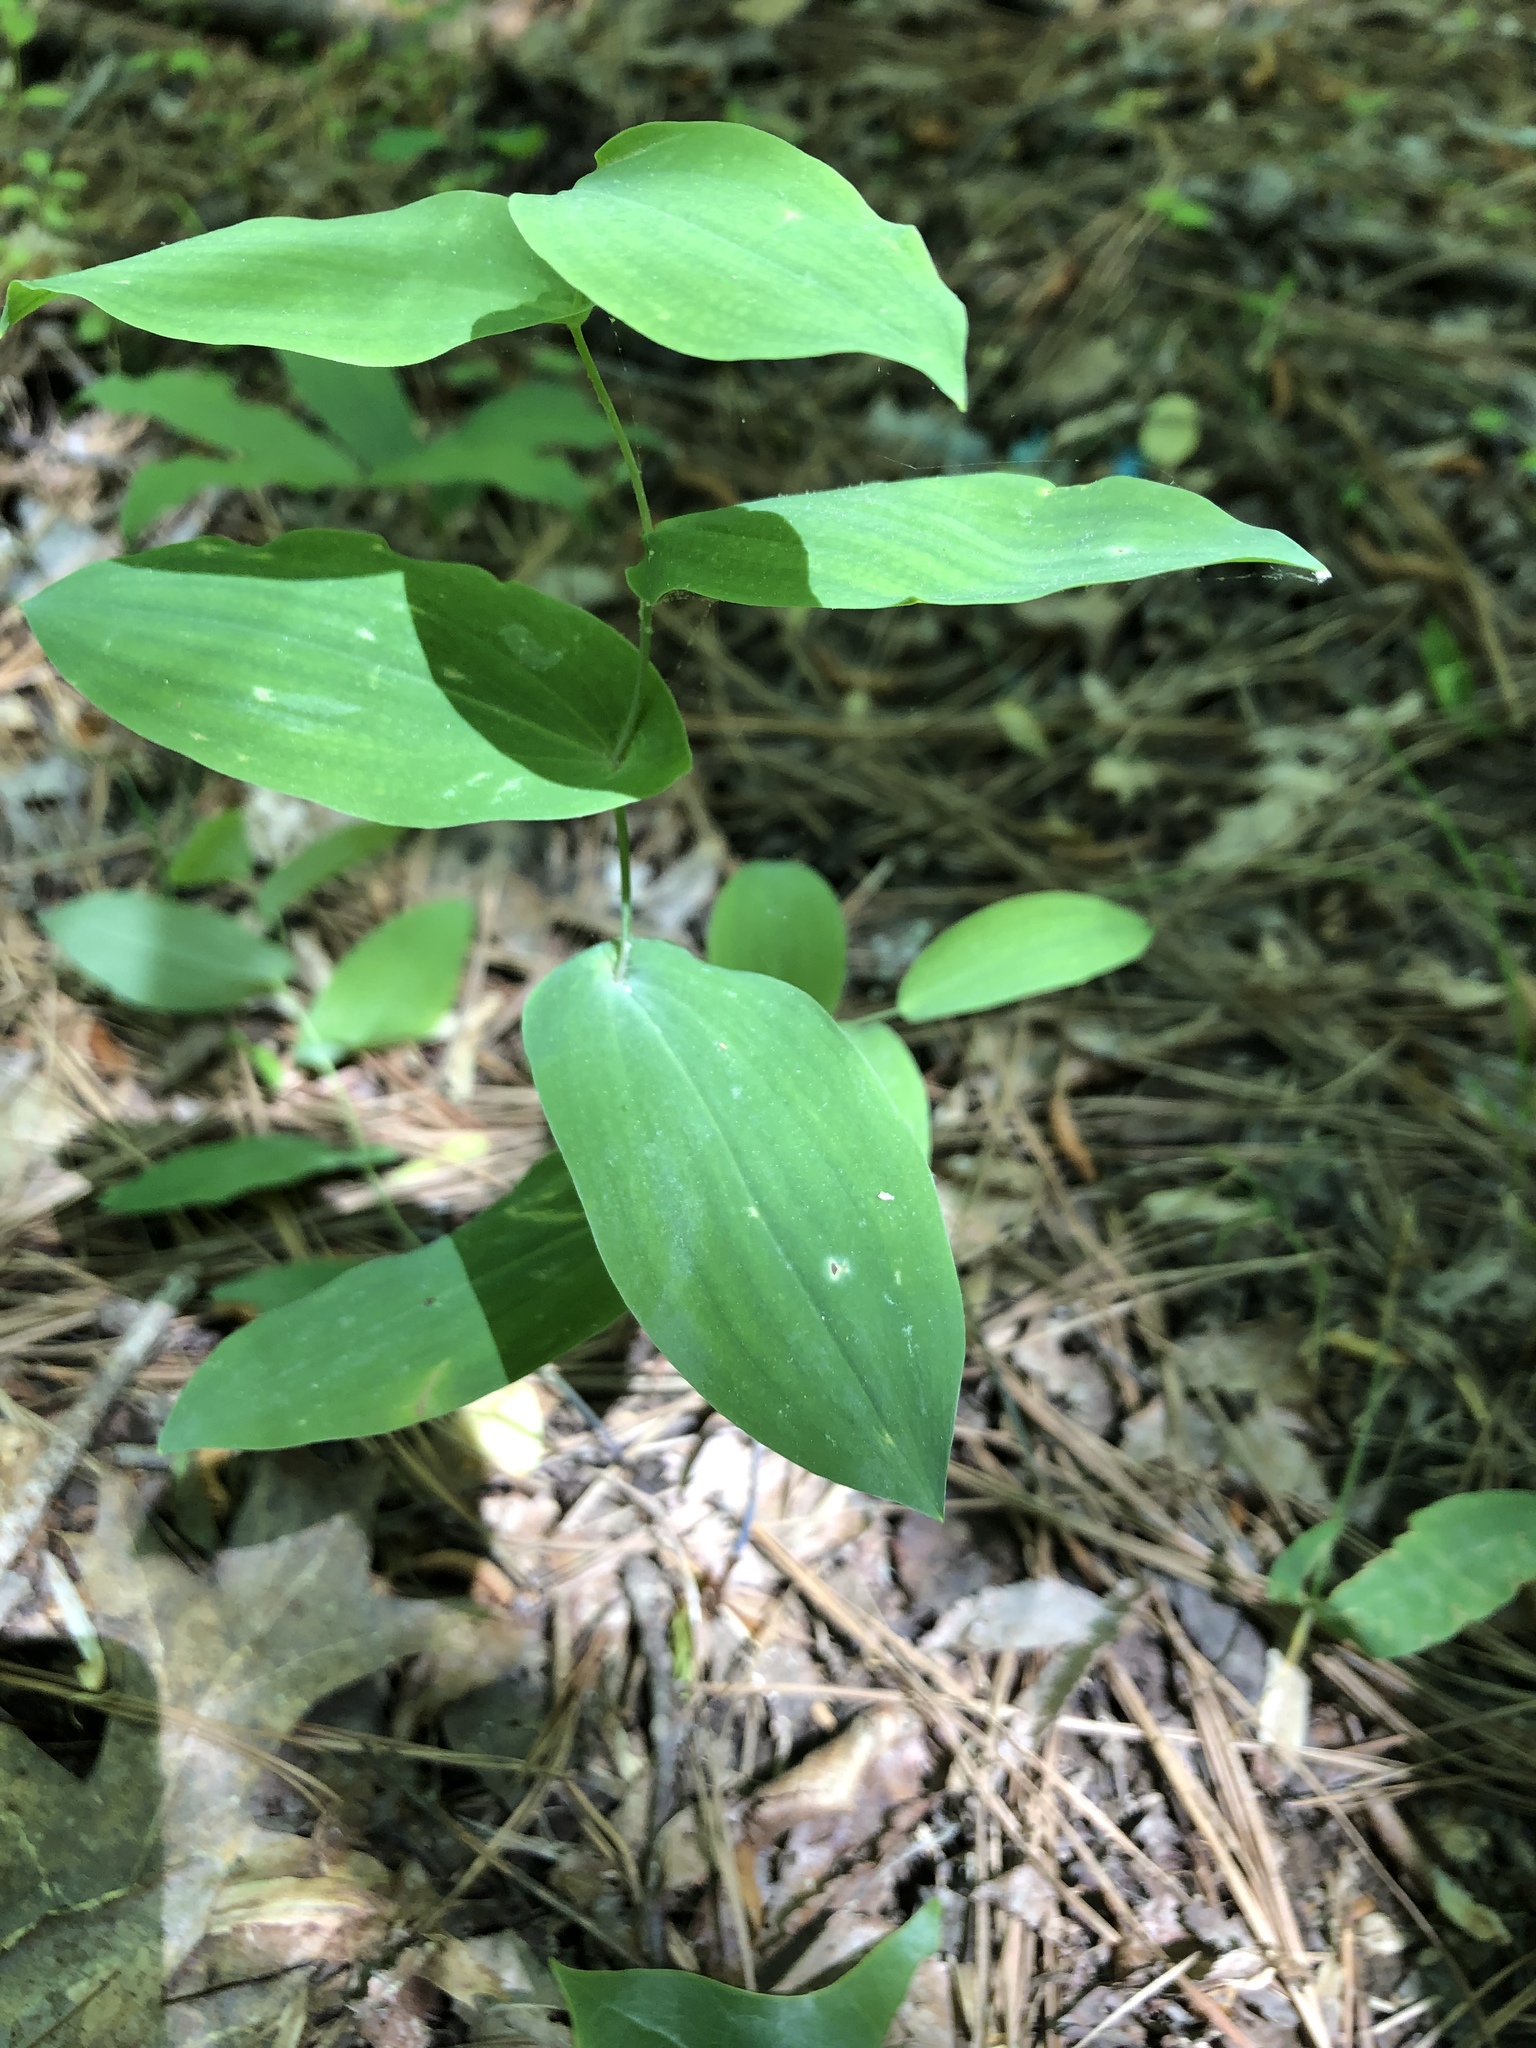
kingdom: Plantae
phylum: Tracheophyta
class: Liliopsida
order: Liliales
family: Colchicaceae
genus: Uvularia
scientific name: Uvularia perfoliata
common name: Perfoliate bellwort
